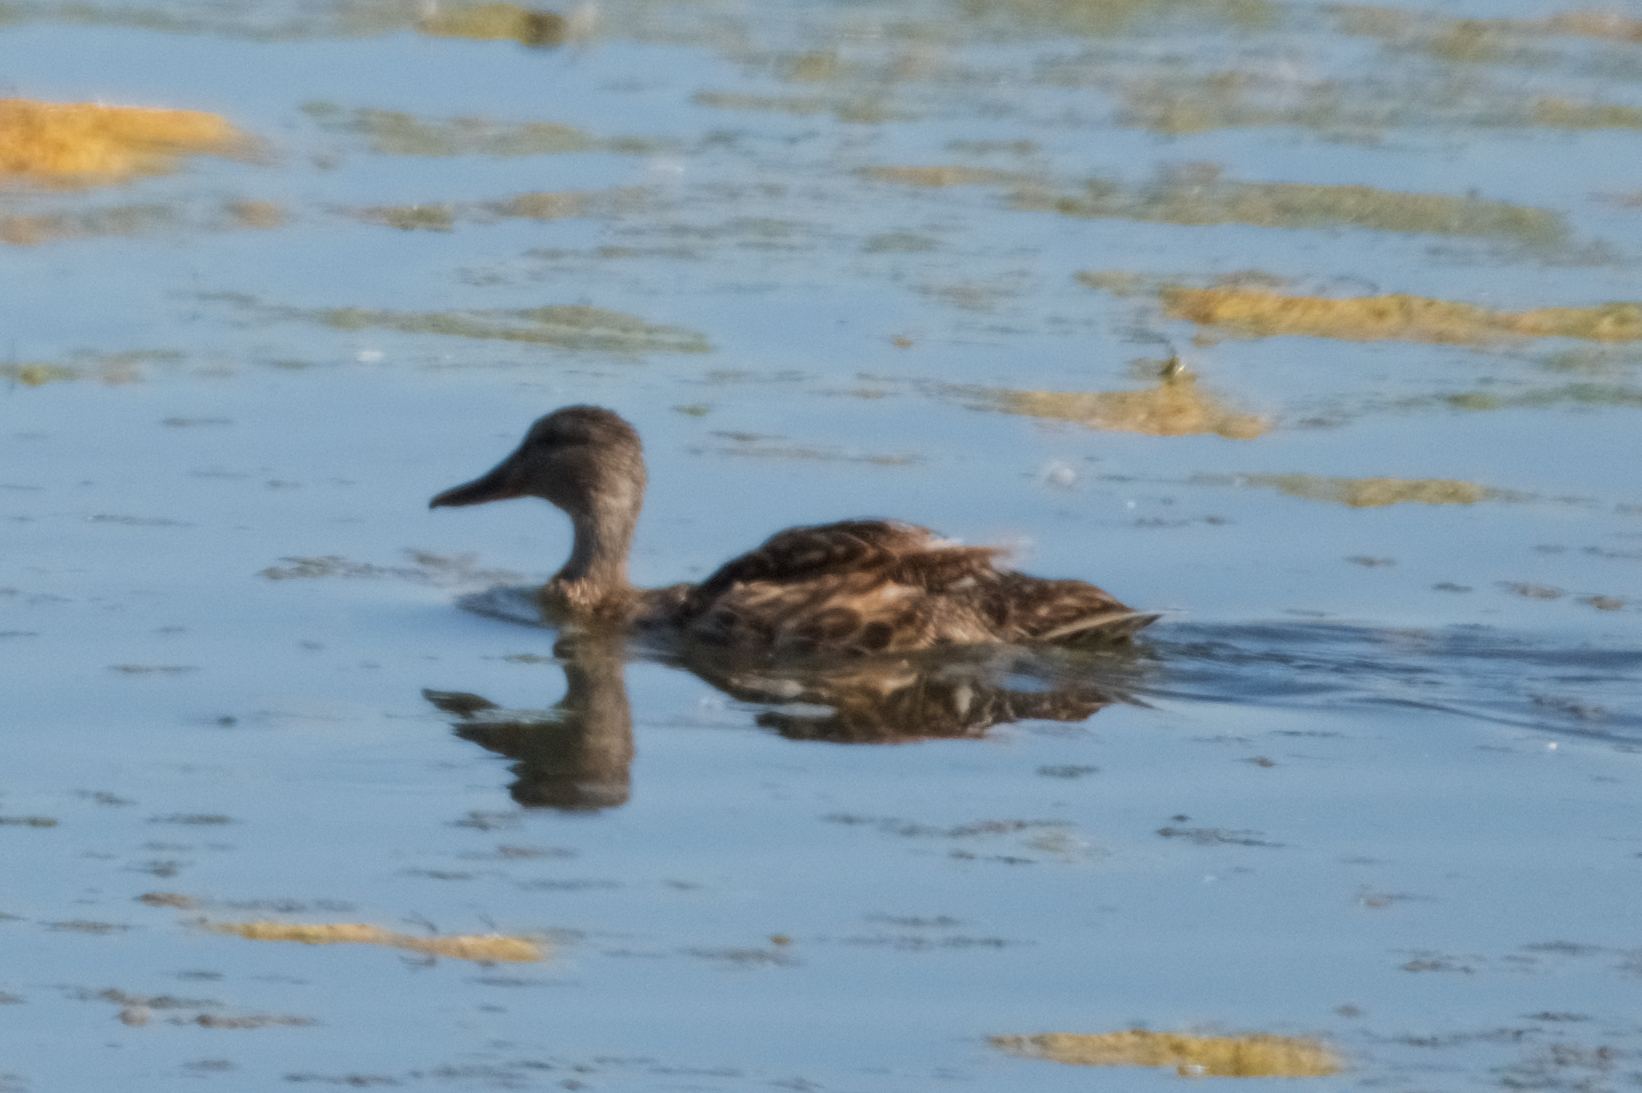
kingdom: Animalia
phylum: Chordata
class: Aves
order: Anseriformes
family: Anatidae
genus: Anas
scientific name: Anas platyrhynchos
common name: Mallard
